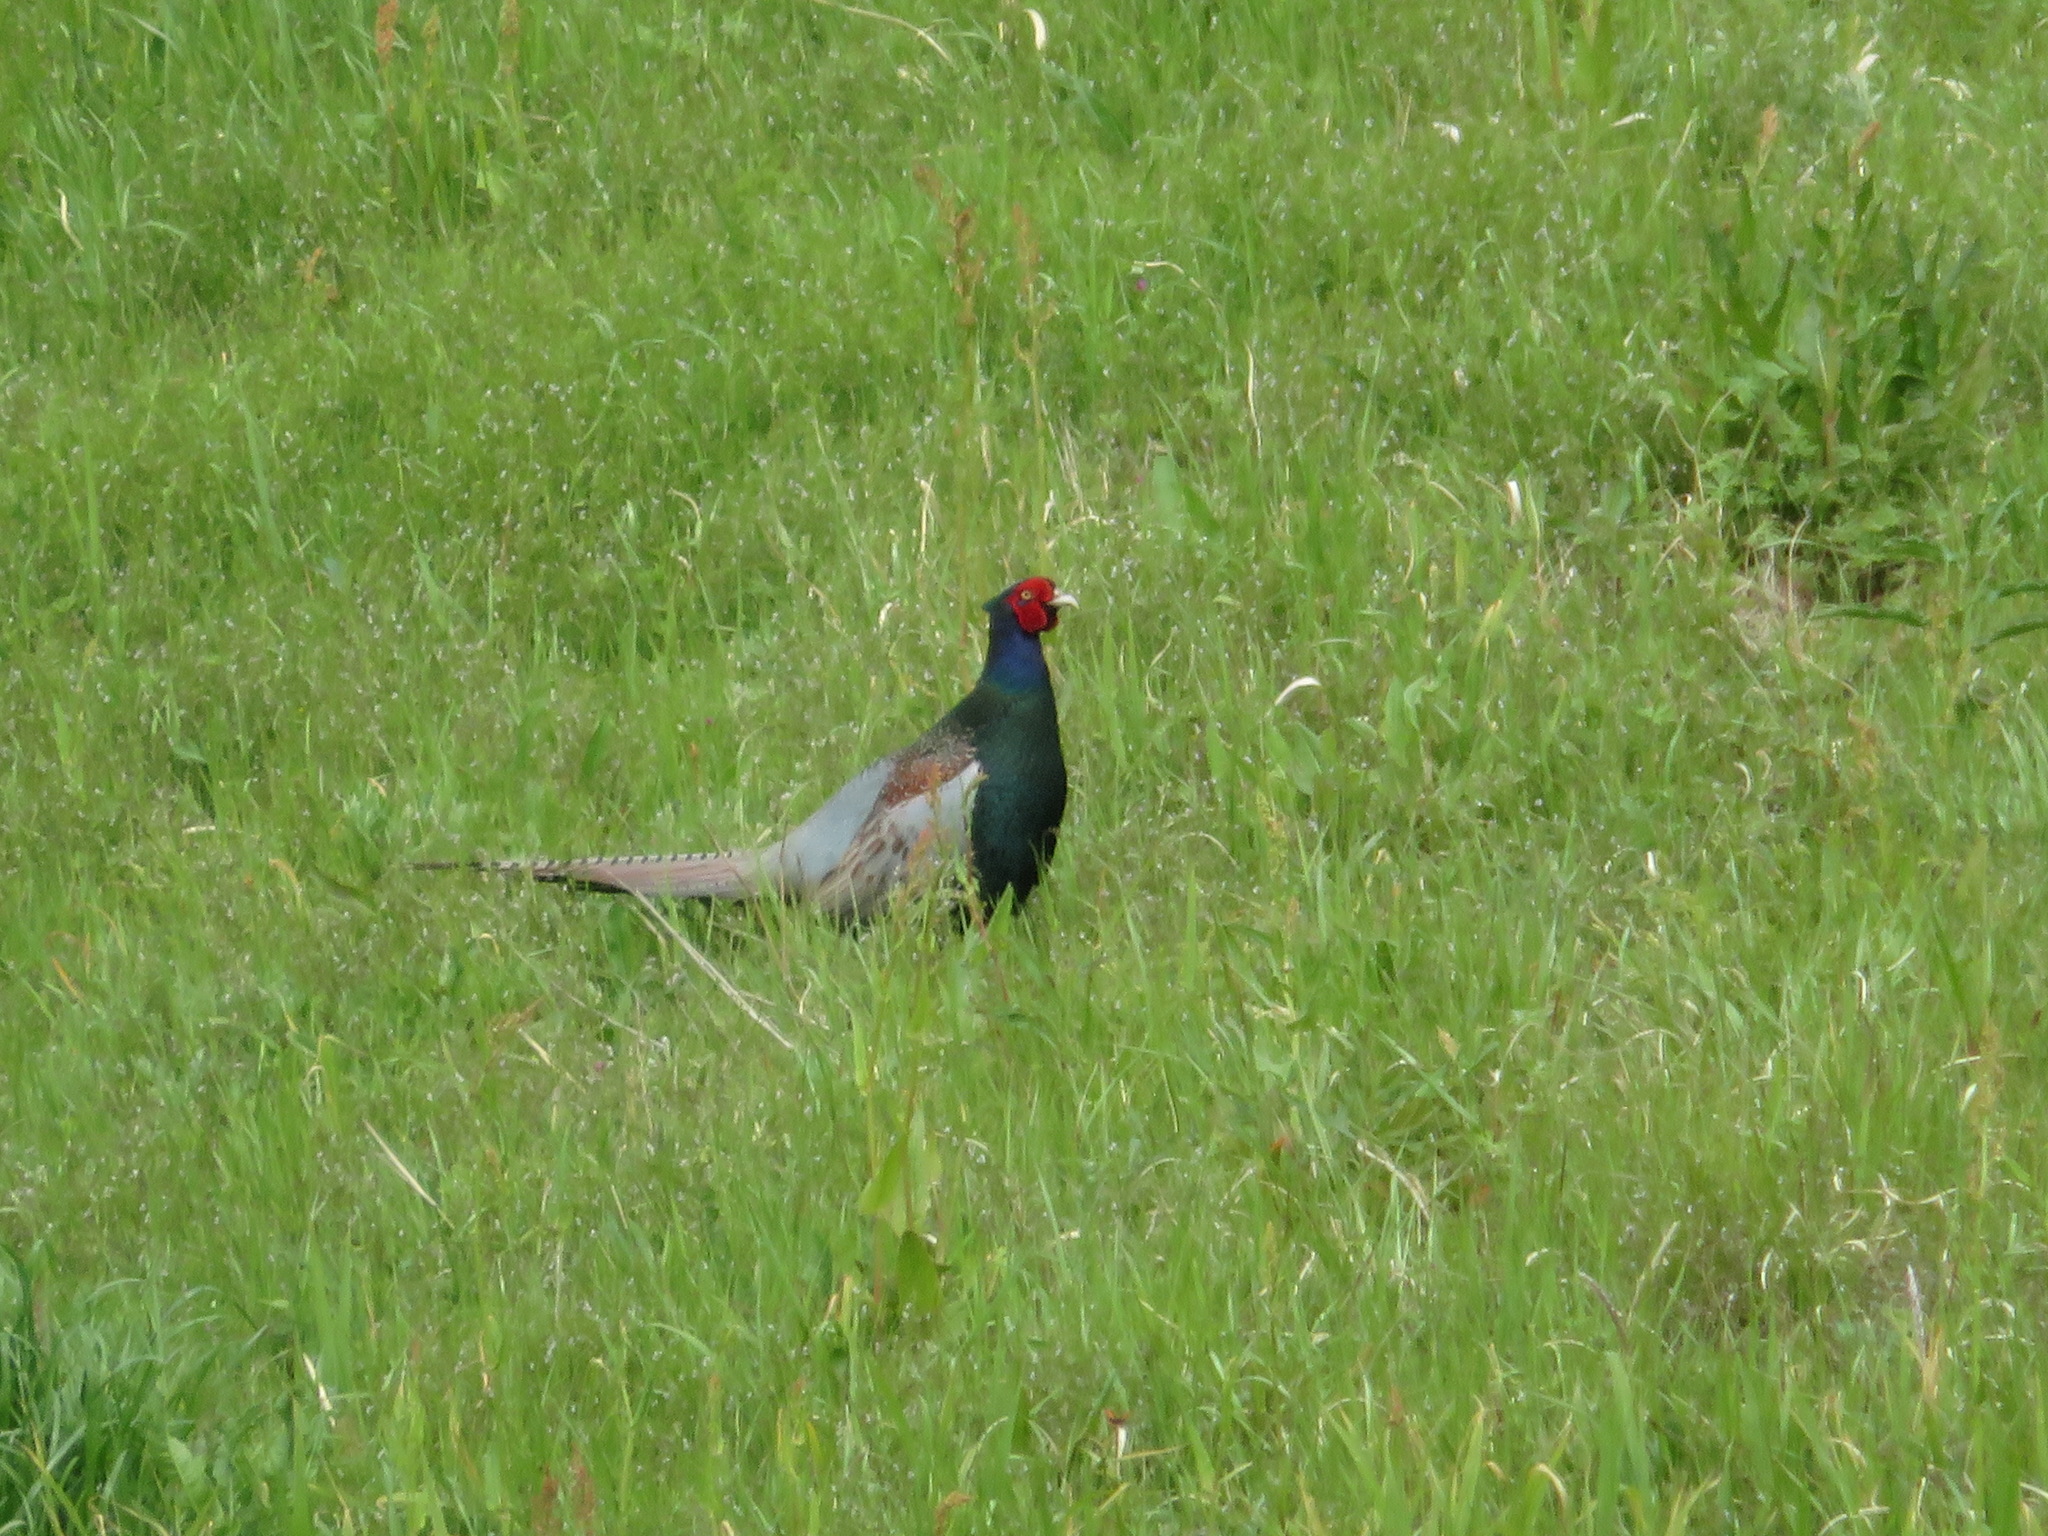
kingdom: Animalia
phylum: Chordata
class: Aves
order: Galliformes
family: Phasianidae
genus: Phasianus
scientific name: Phasianus versicolor
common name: Green pheasant
